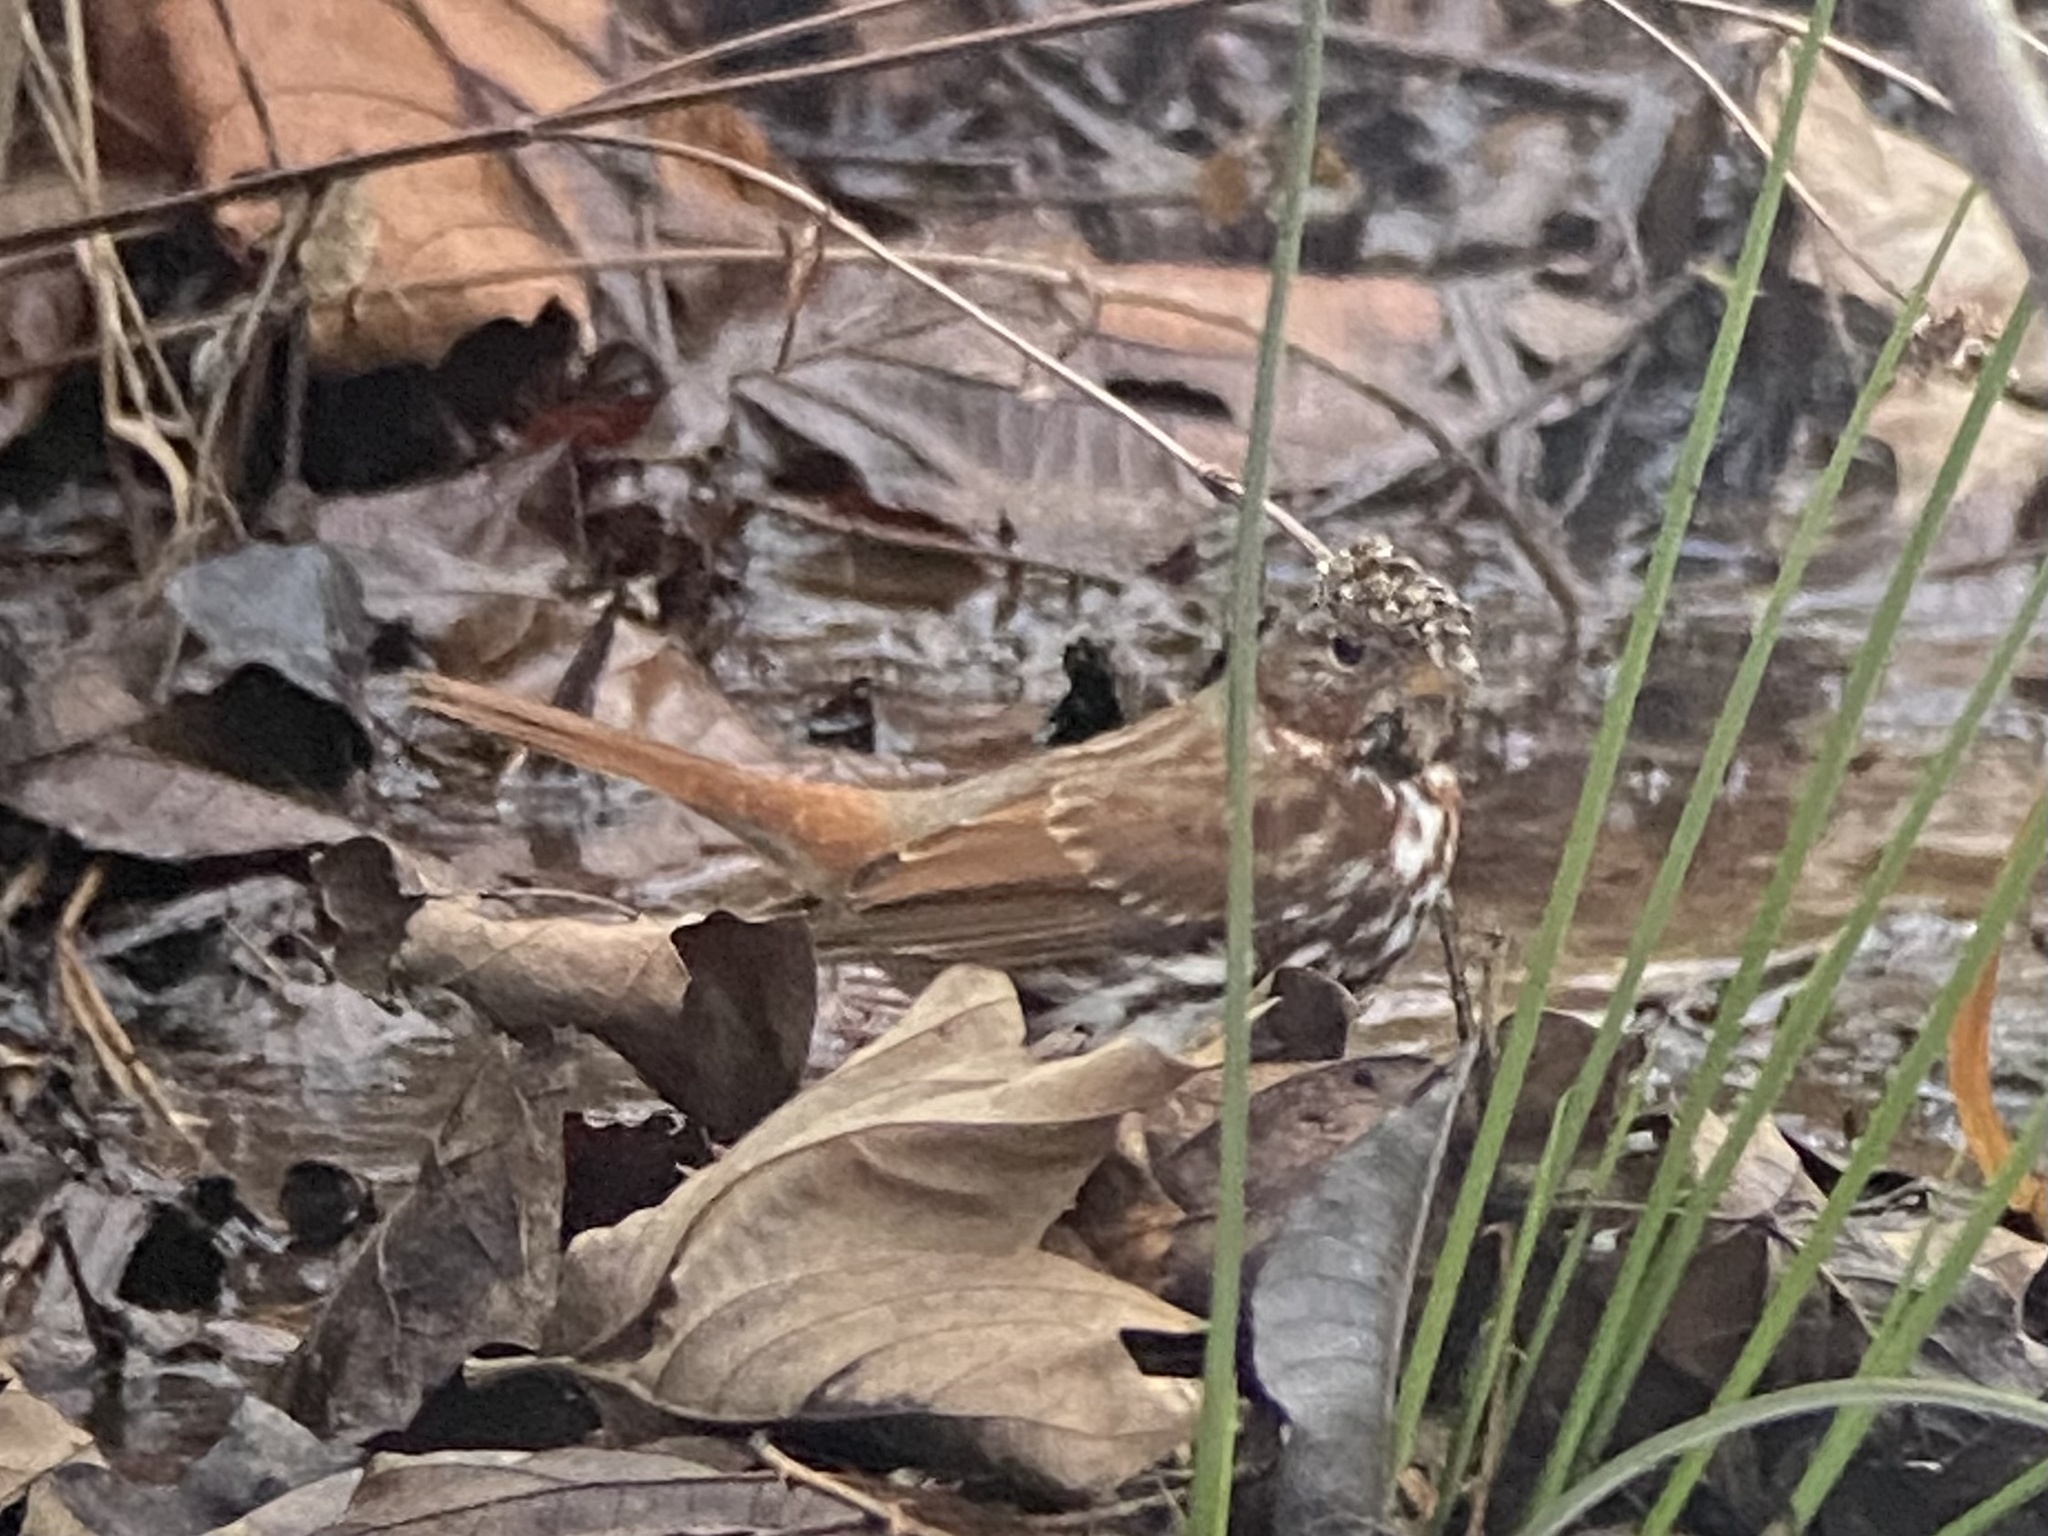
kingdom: Animalia
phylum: Chordata
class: Aves
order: Passeriformes
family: Passerellidae
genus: Passerella
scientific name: Passerella iliaca
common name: Fox sparrow
